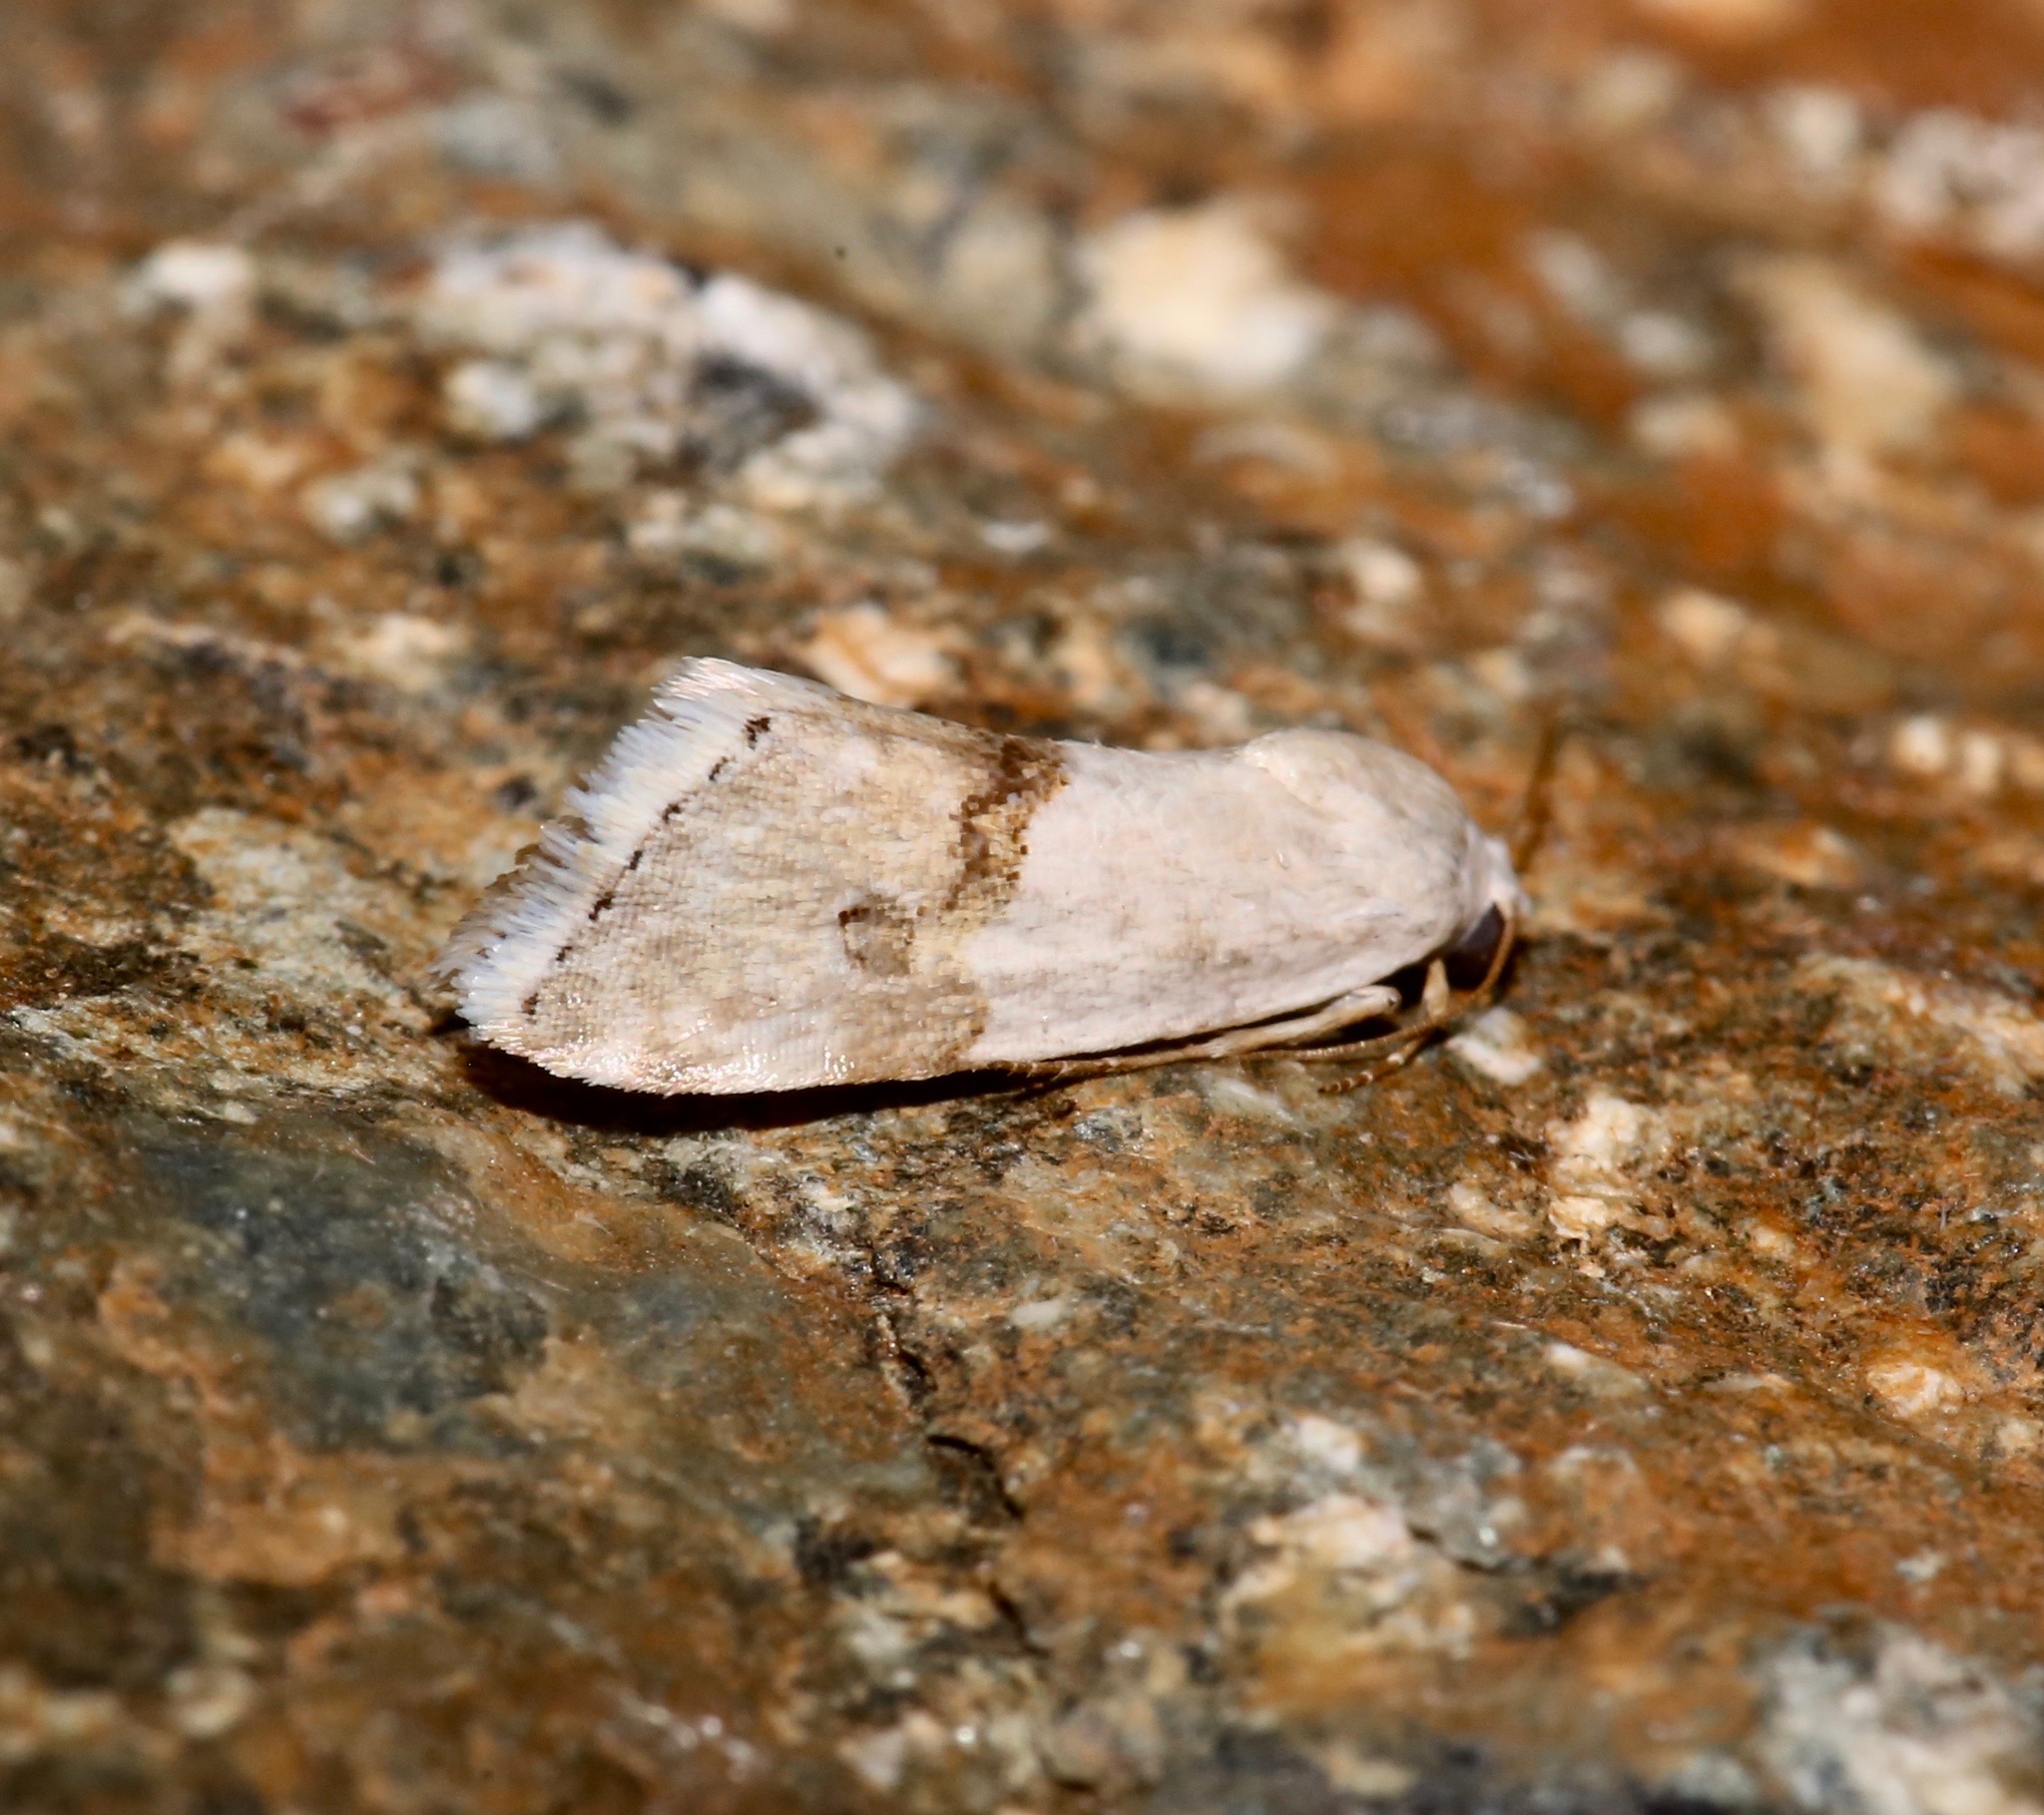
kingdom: Animalia
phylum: Arthropoda
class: Insecta
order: Lepidoptera
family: Noctuidae
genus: Ponometia
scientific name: Ponometia elegantula
